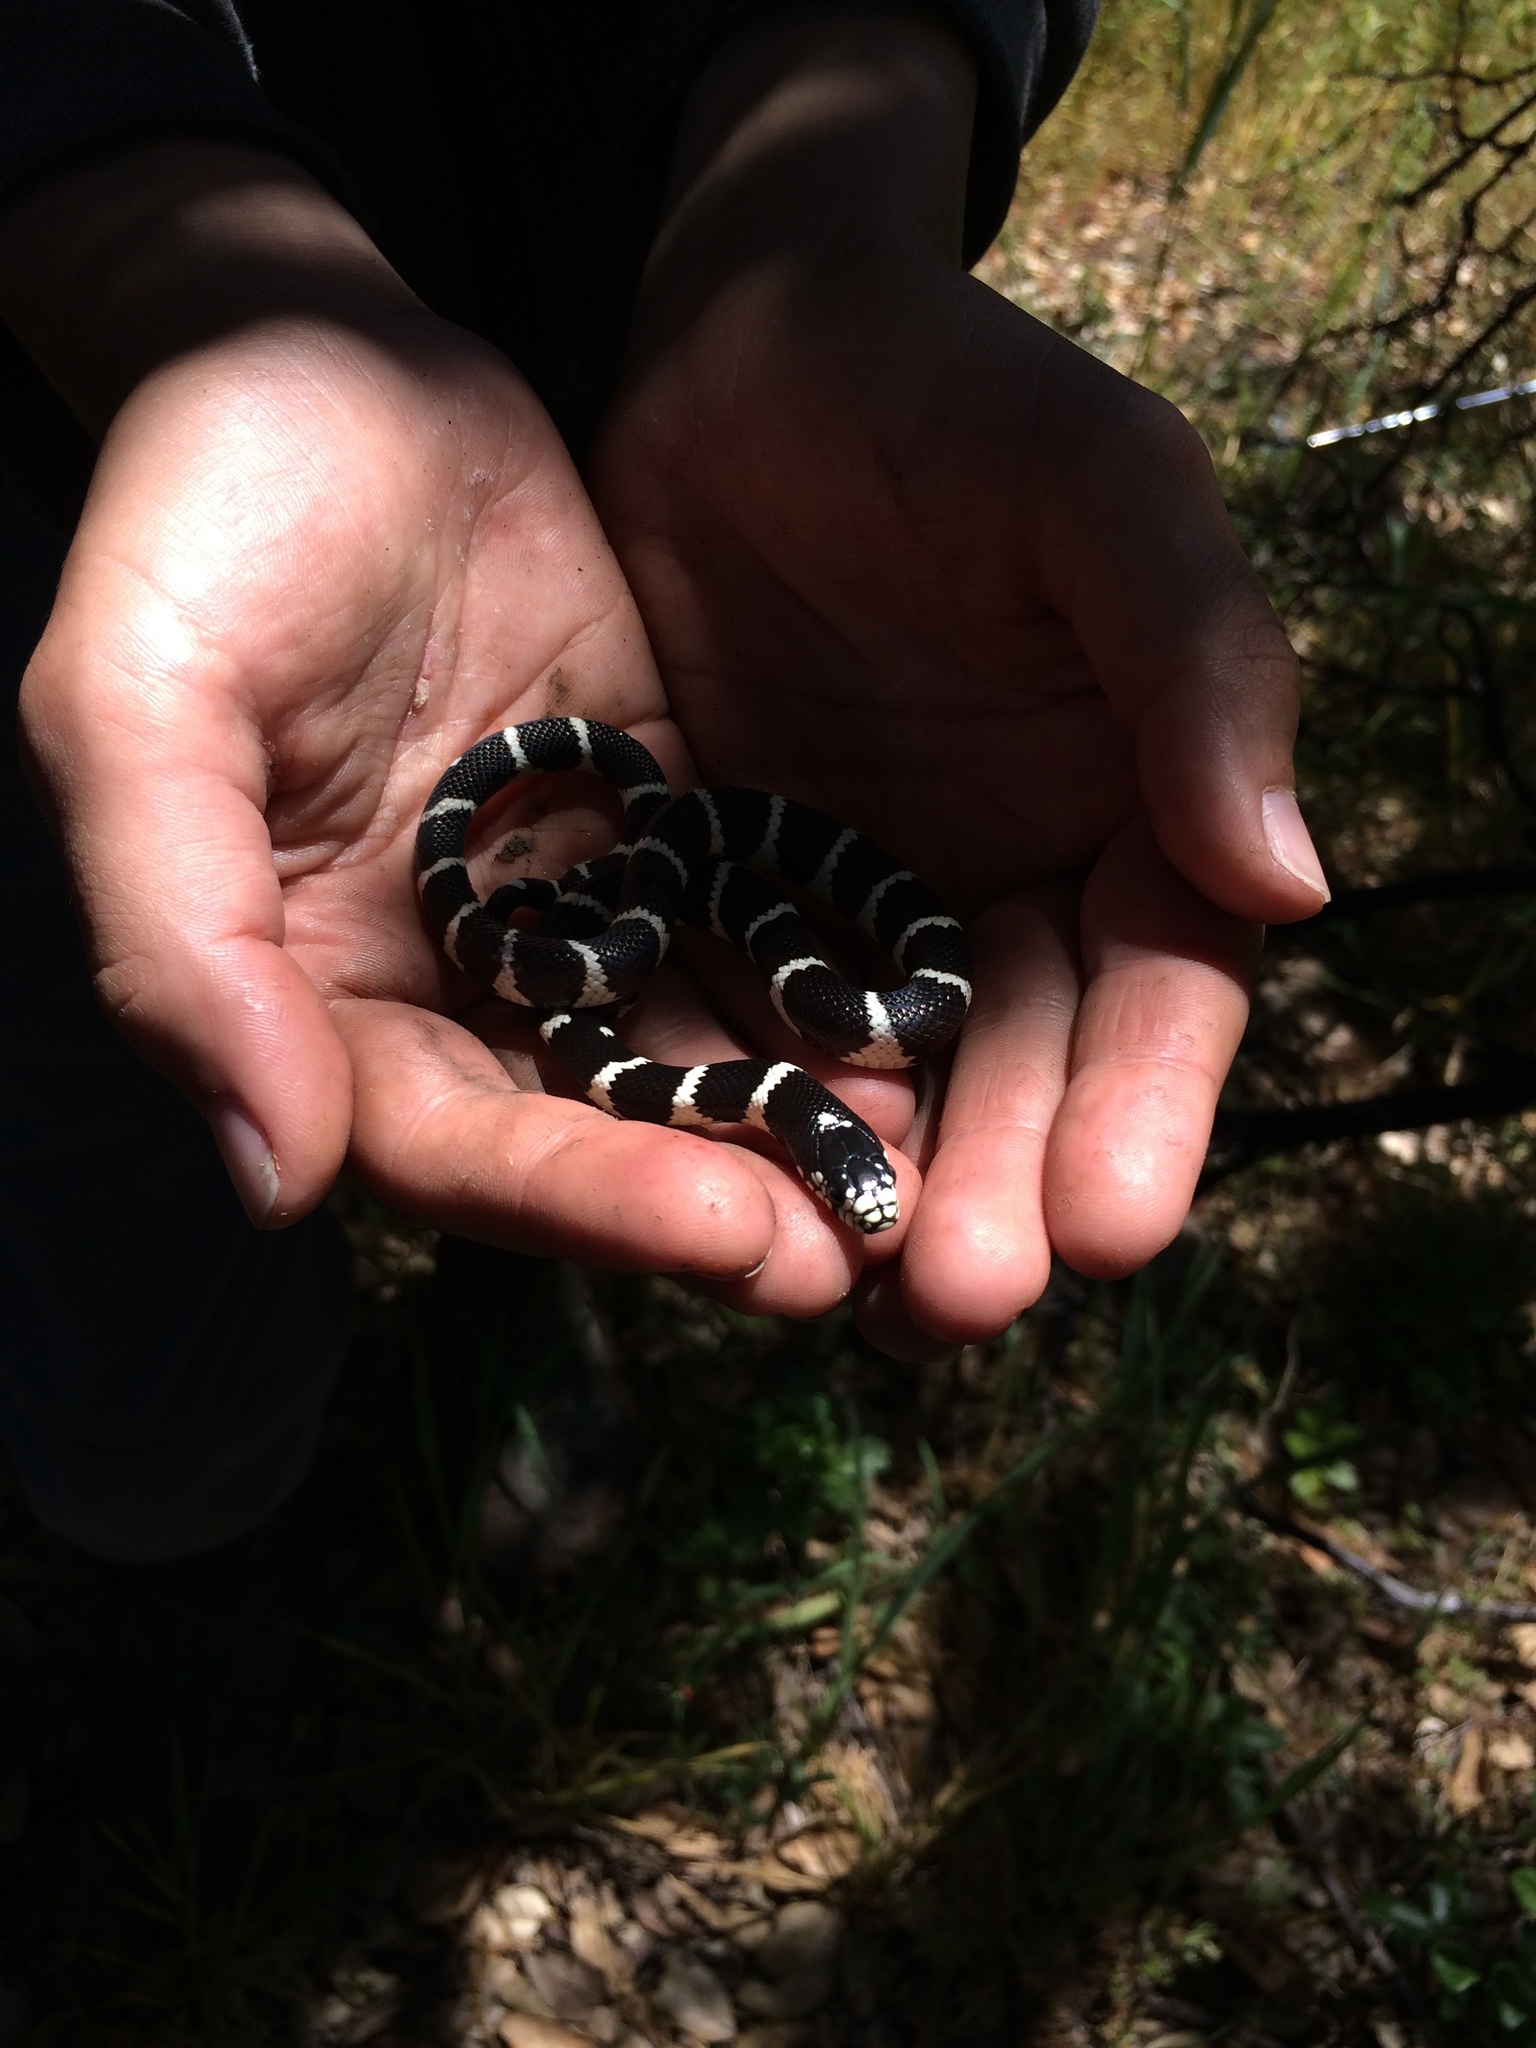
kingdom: Animalia
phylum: Chordata
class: Squamata
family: Colubridae
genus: Lampropeltis
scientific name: Lampropeltis californiae
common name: California kingsnake
